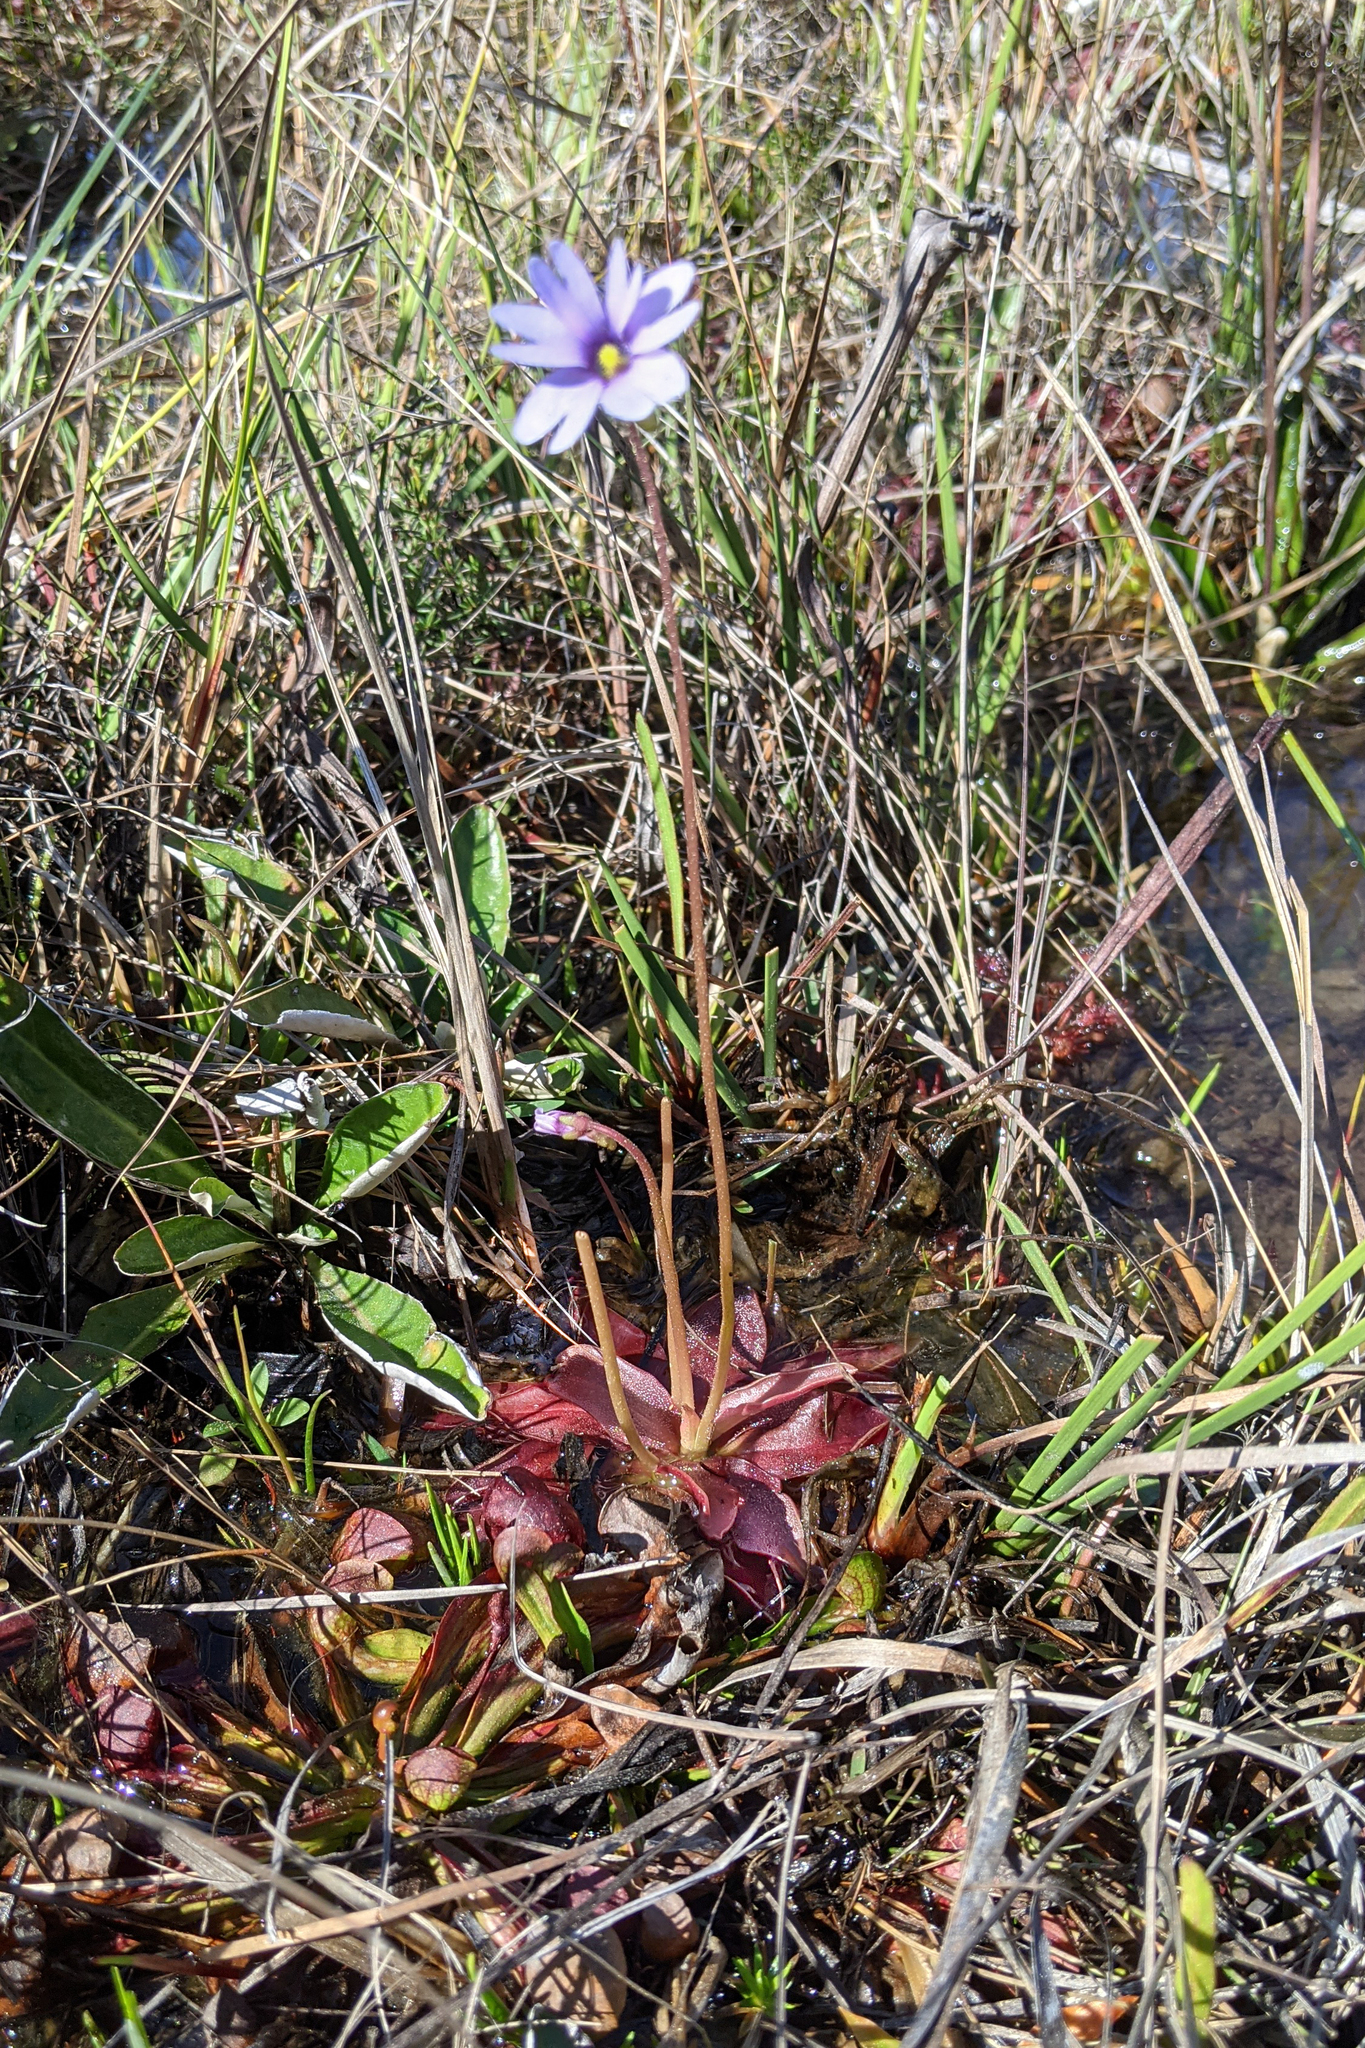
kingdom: Plantae
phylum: Tracheophyta
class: Magnoliopsida
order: Lamiales
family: Lentibulariaceae
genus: Pinguicula
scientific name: Pinguicula planifolia
